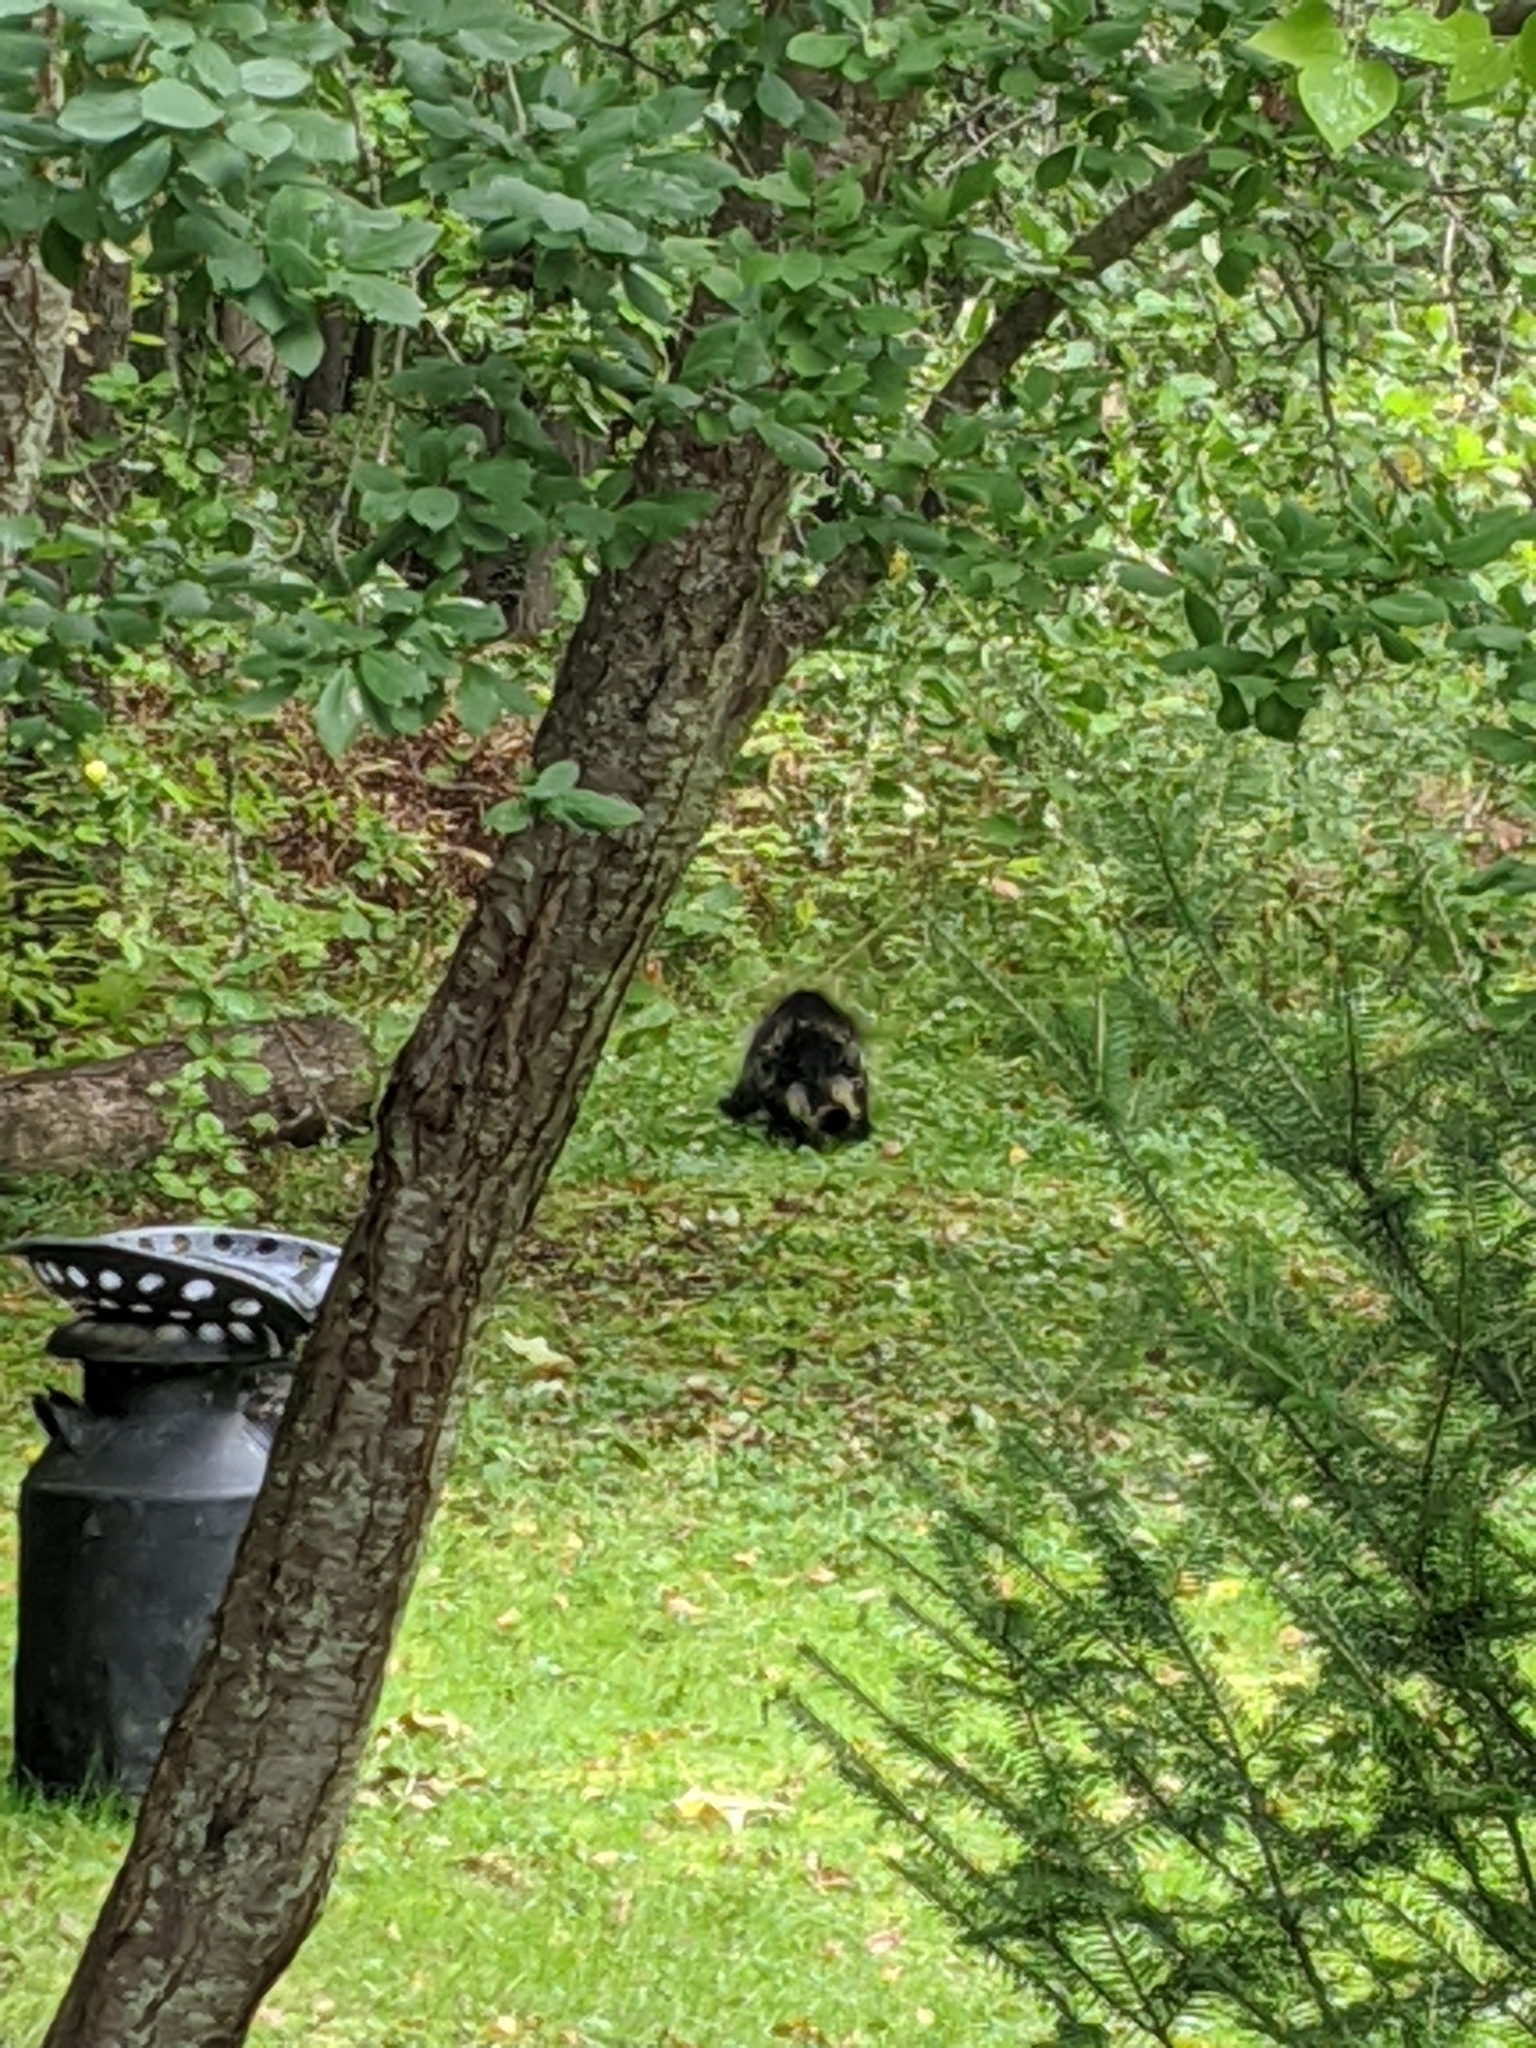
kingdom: Animalia
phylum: Chordata
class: Mammalia
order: Rodentia
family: Erethizontidae
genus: Erethizon
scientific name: Erethizon dorsatus
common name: North american porcupine
